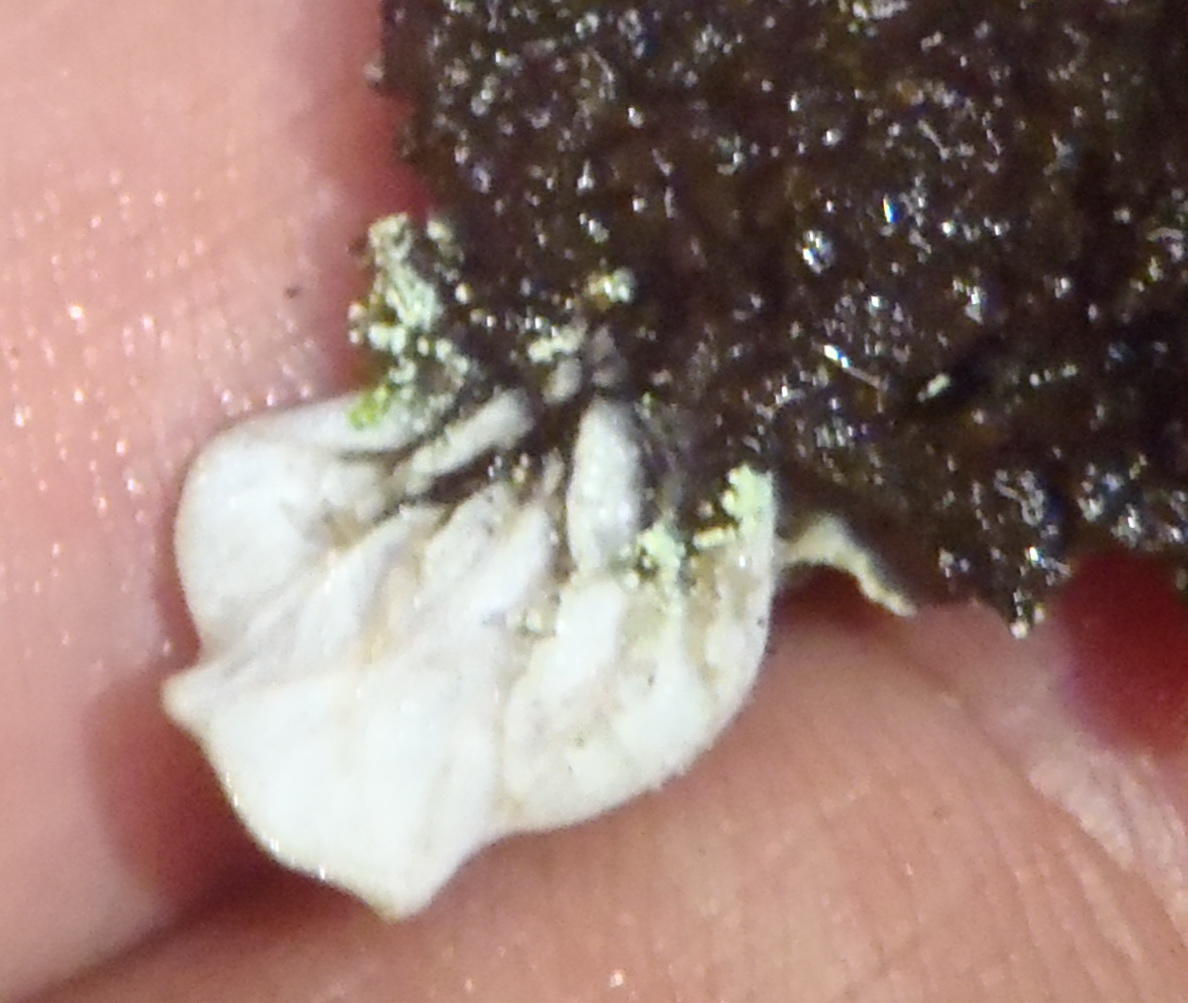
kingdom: Fungi
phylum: Ascomycota
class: Lecanoromycetes
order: Peltigerales
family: Peltigeraceae
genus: Peltigera
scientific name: Peltigera didactyla
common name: Alternating dog lichen
